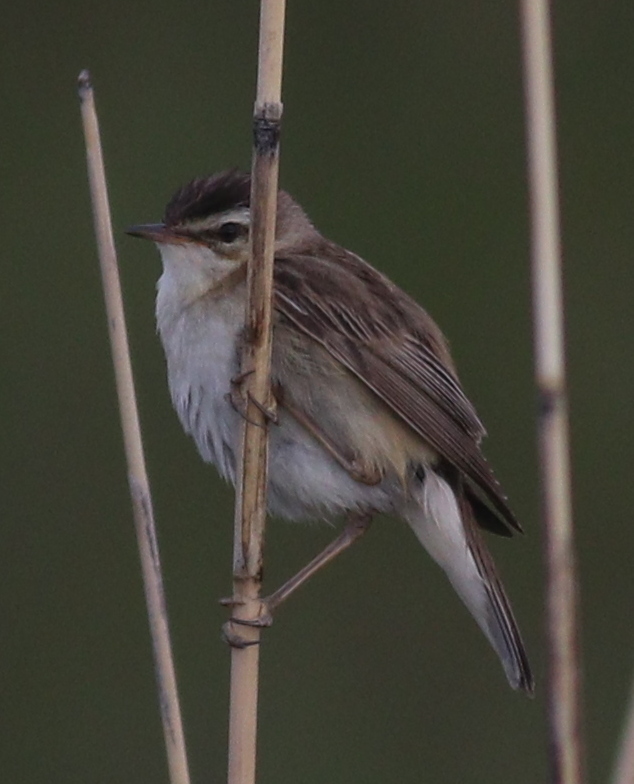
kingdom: Animalia
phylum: Chordata
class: Aves
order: Passeriformes
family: Acrocephalidae
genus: Acrocephalus
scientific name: Acrocephalus schoenobaenus
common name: Sedge warbler
